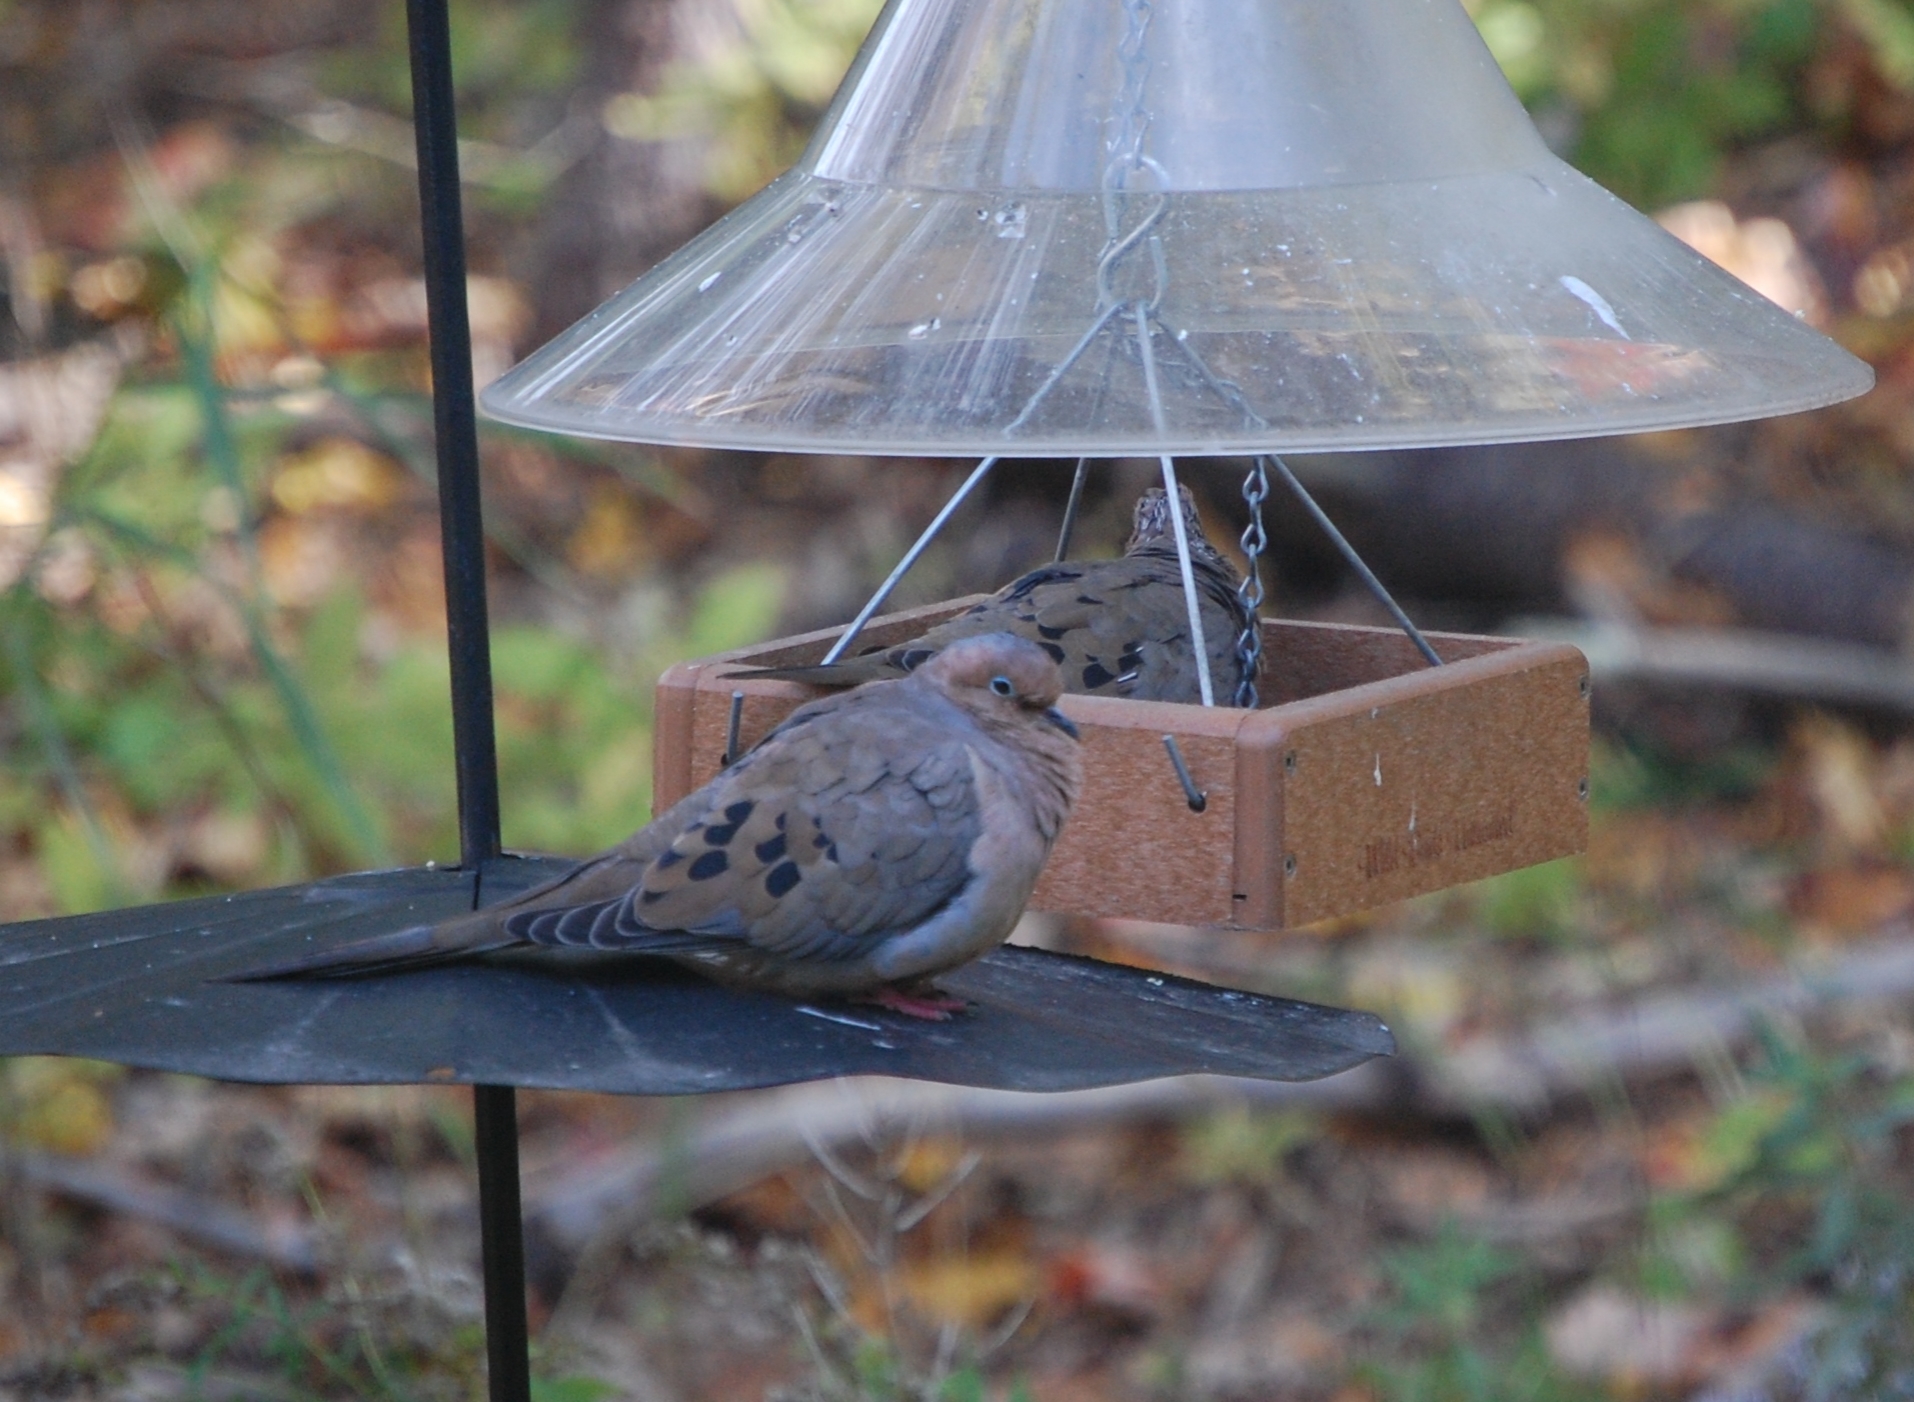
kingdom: Animalia
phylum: Chordata
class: Aves
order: Columbiformes
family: Columbidae
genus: Zenaida
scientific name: Zenaida macroura
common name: Mourning dove
